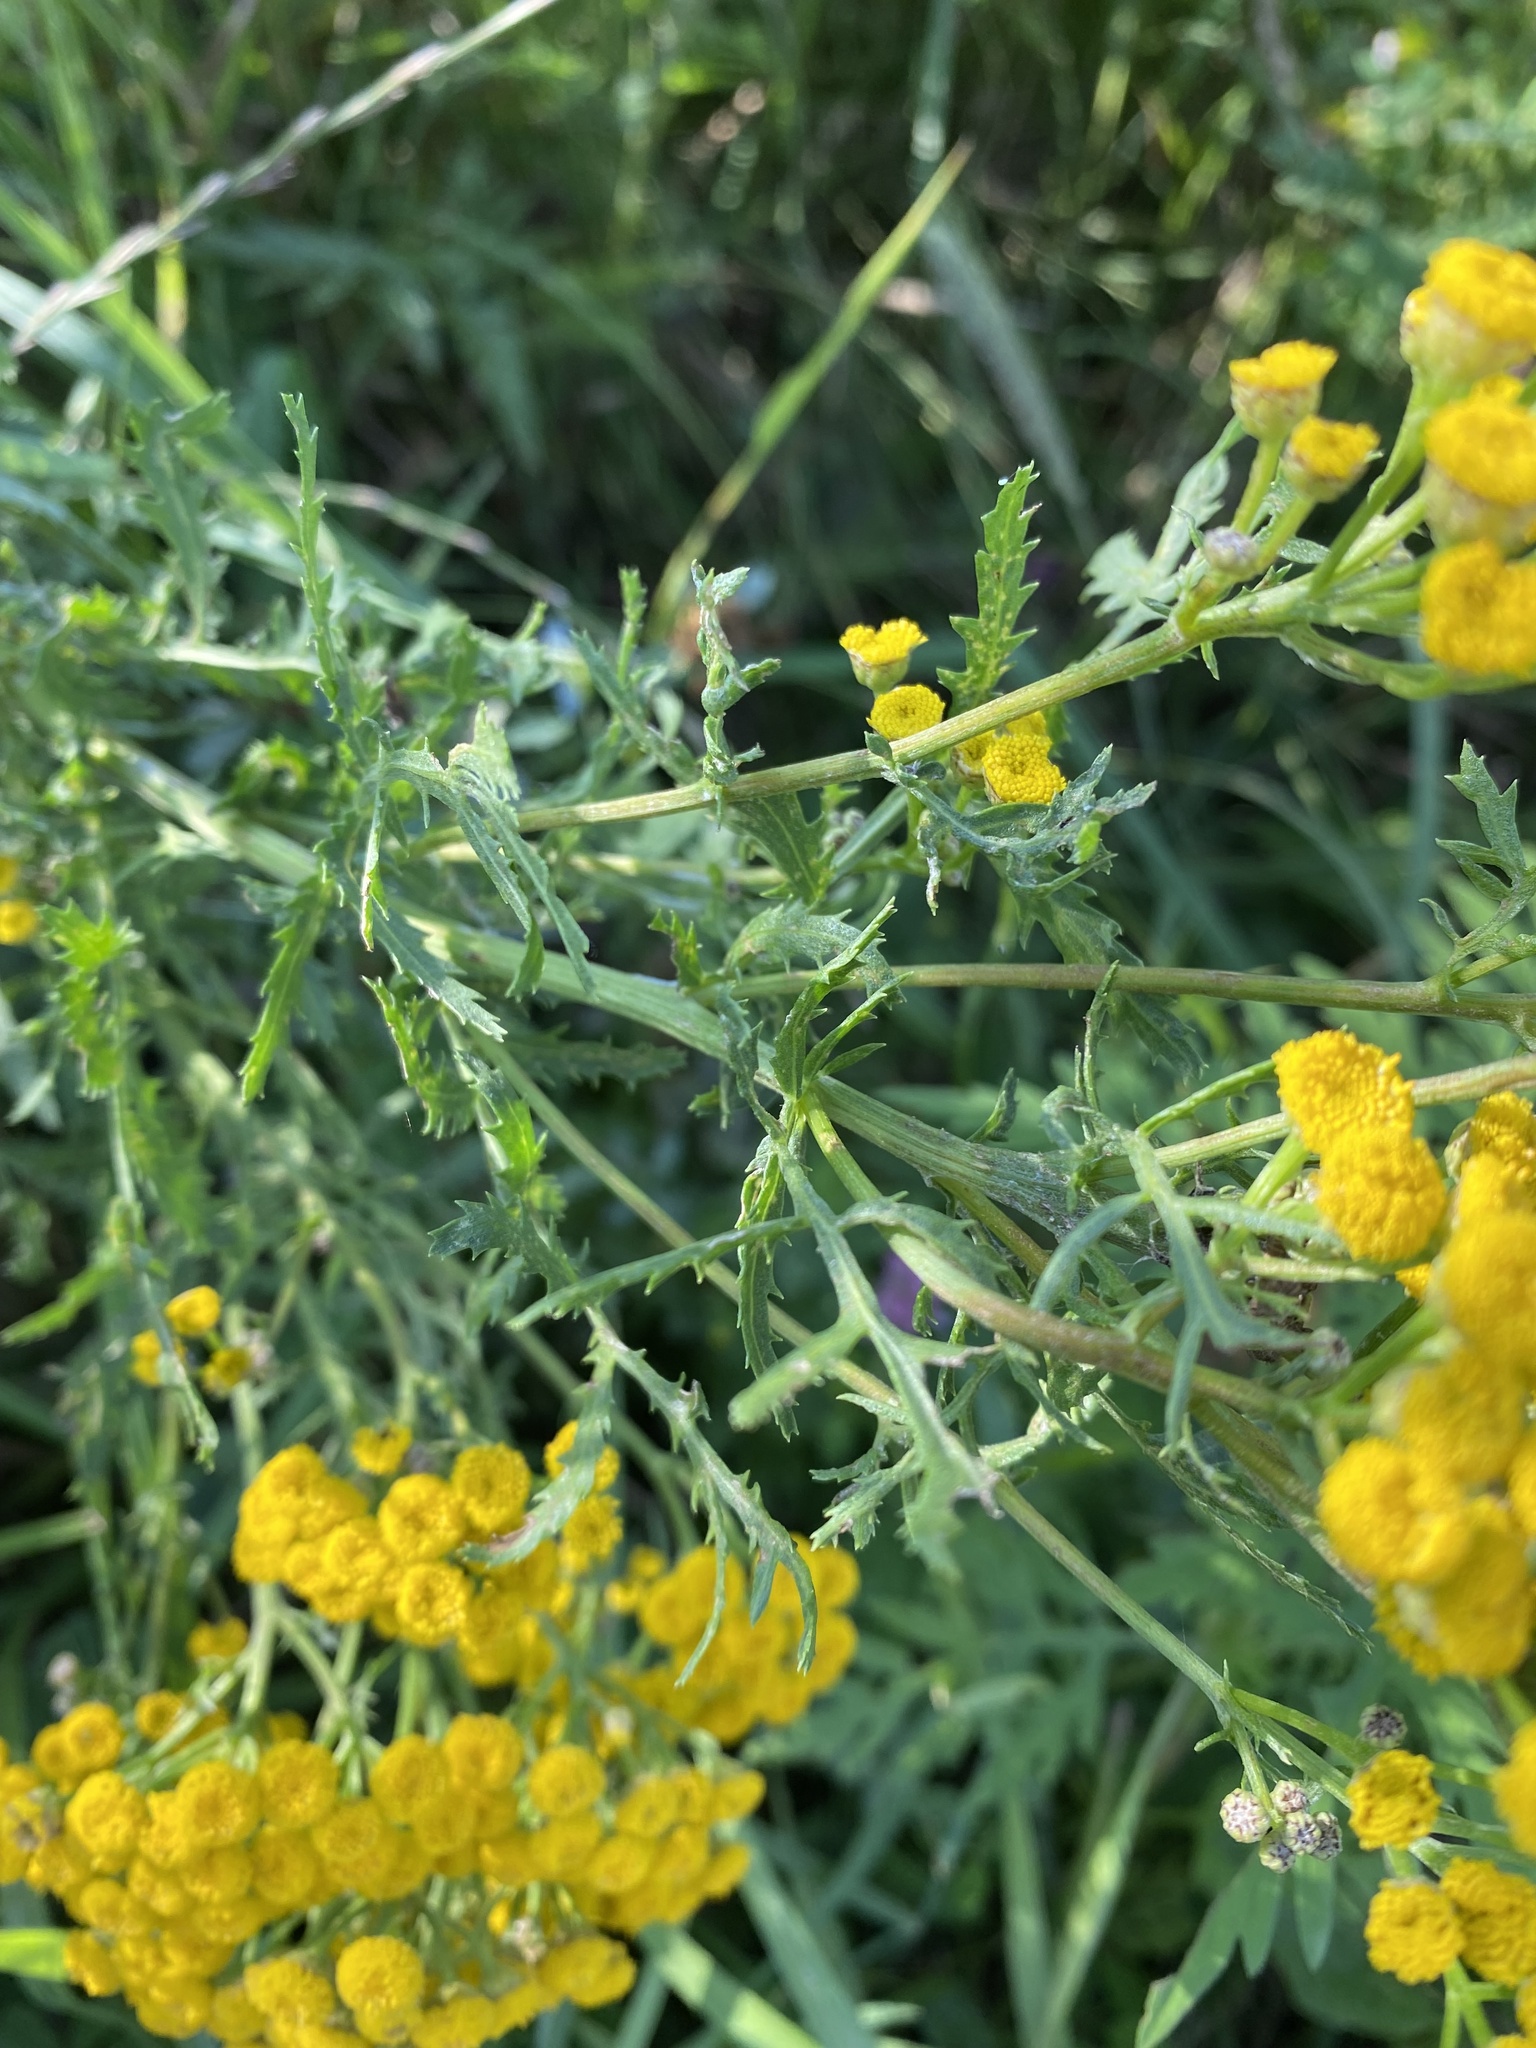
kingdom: Plantae
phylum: Tracheophyta
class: Magnoliopsida
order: Asterales
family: Asteraceae
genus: Tanacetum
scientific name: Tanacetum vulgare
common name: Common tansy
